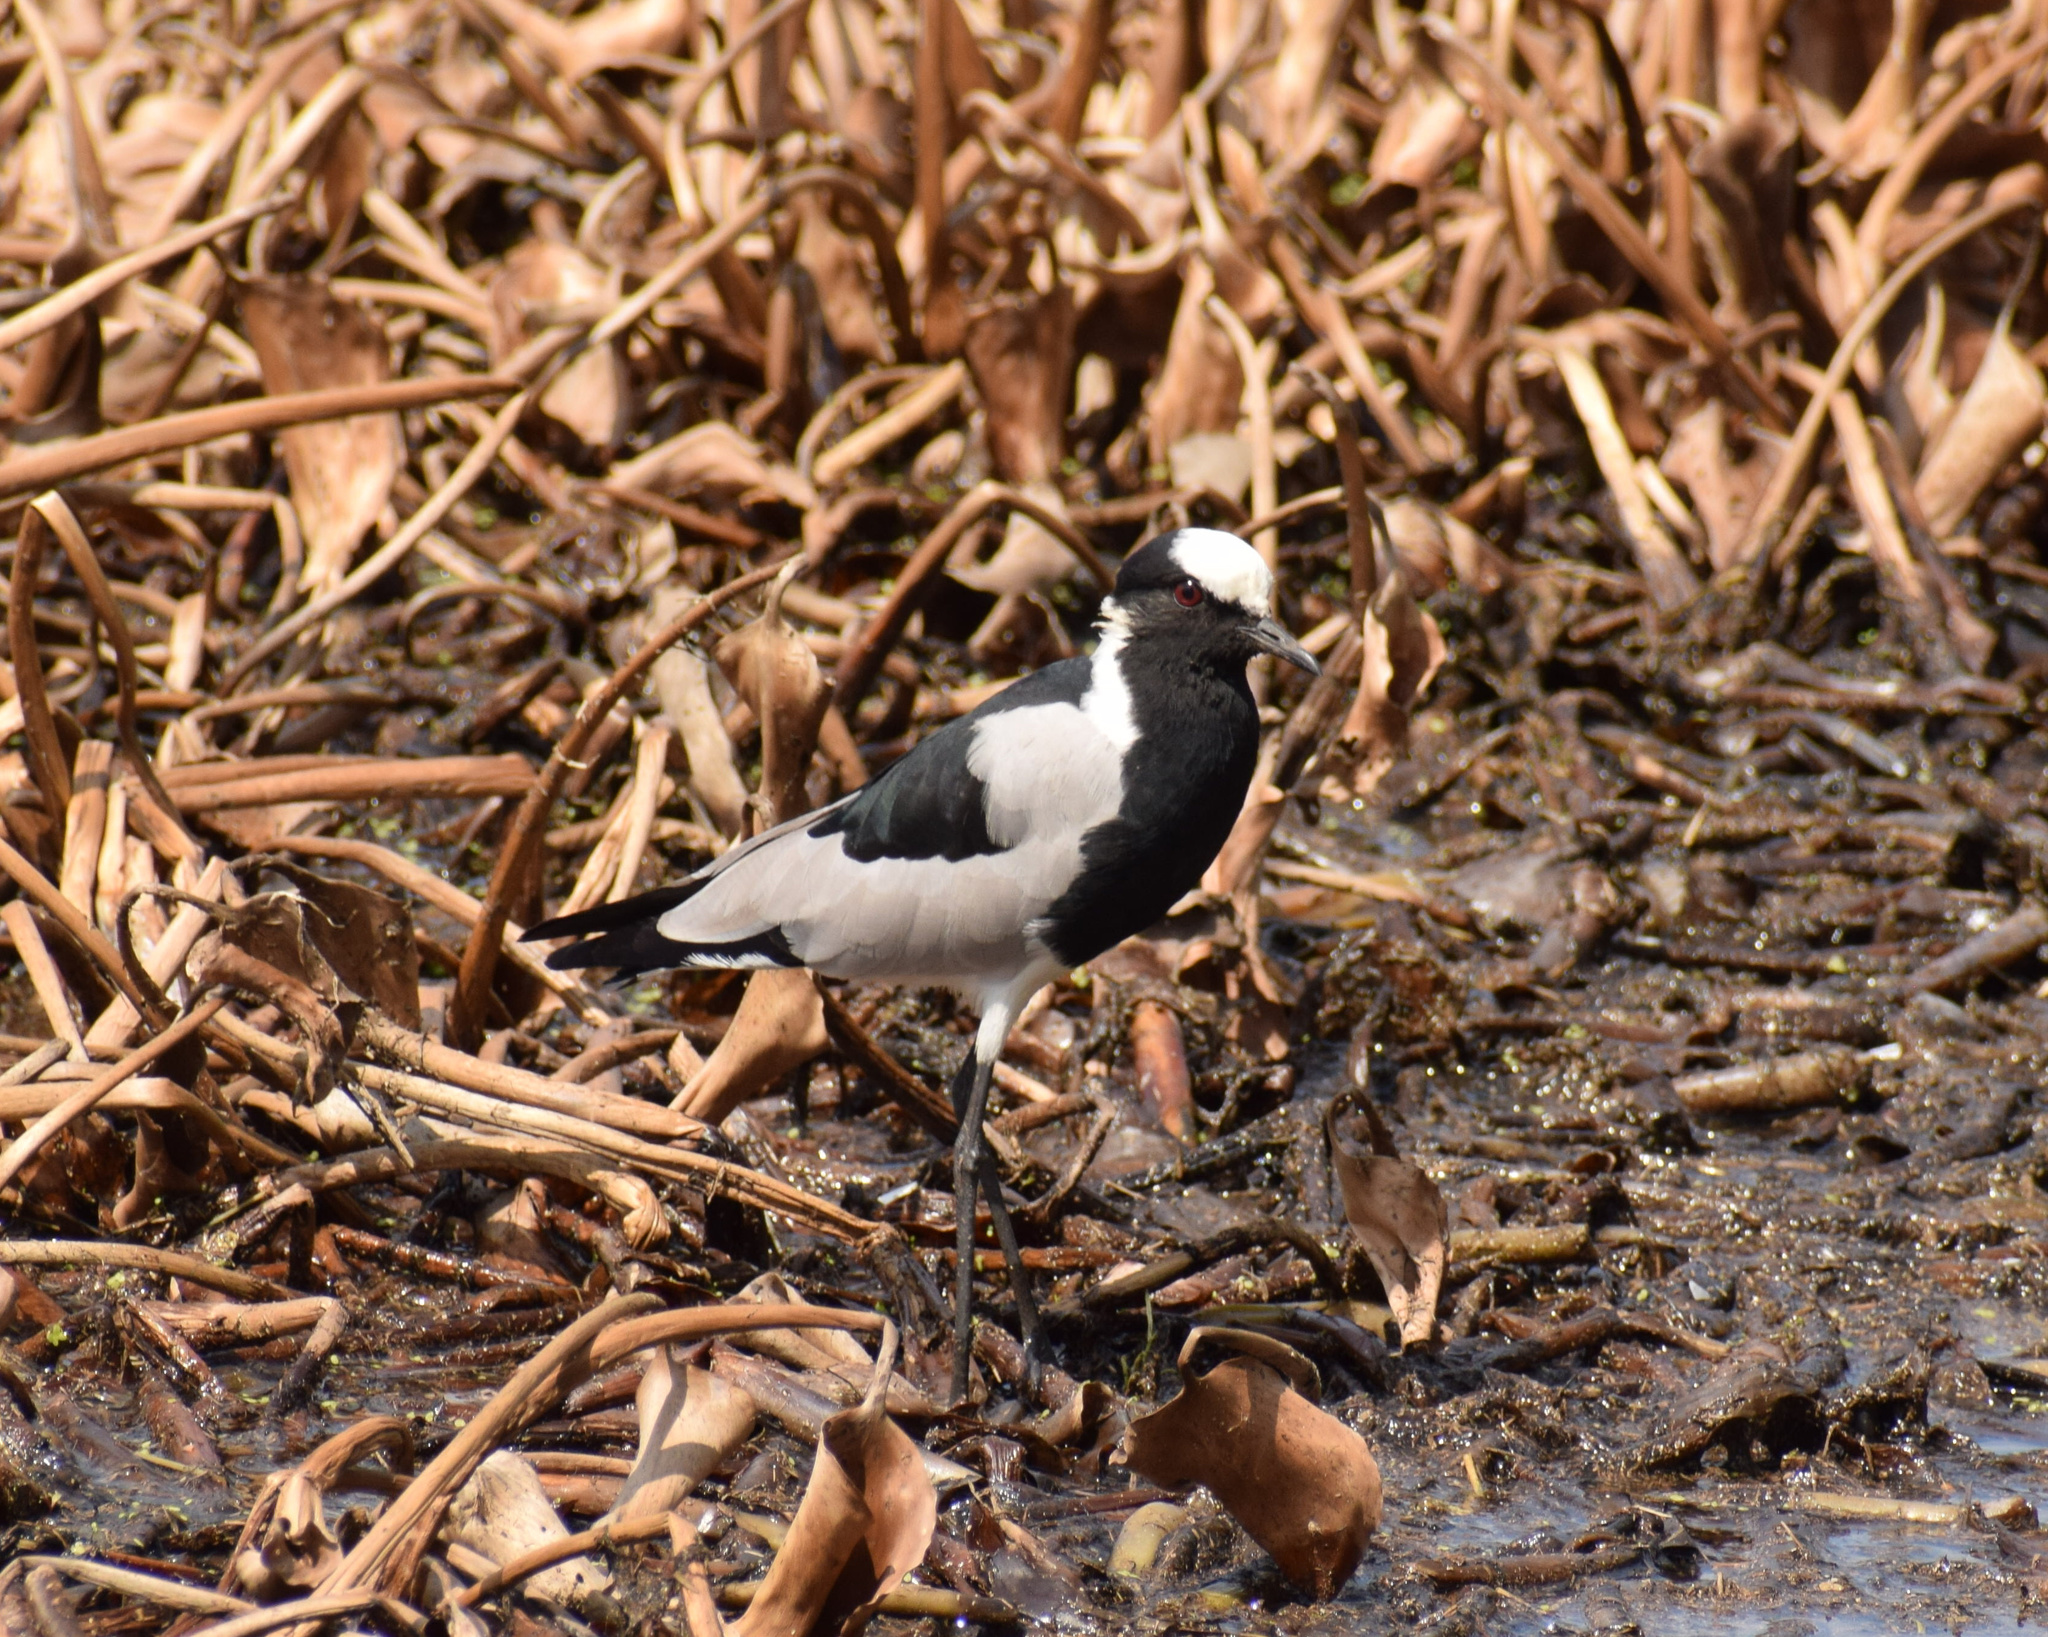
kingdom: Animalia
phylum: Chordata
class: Aves
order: Charadriiformes
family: Charadriidae
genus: Vanellus
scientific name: Vanellus armatus
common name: Blacksmith lapwing
